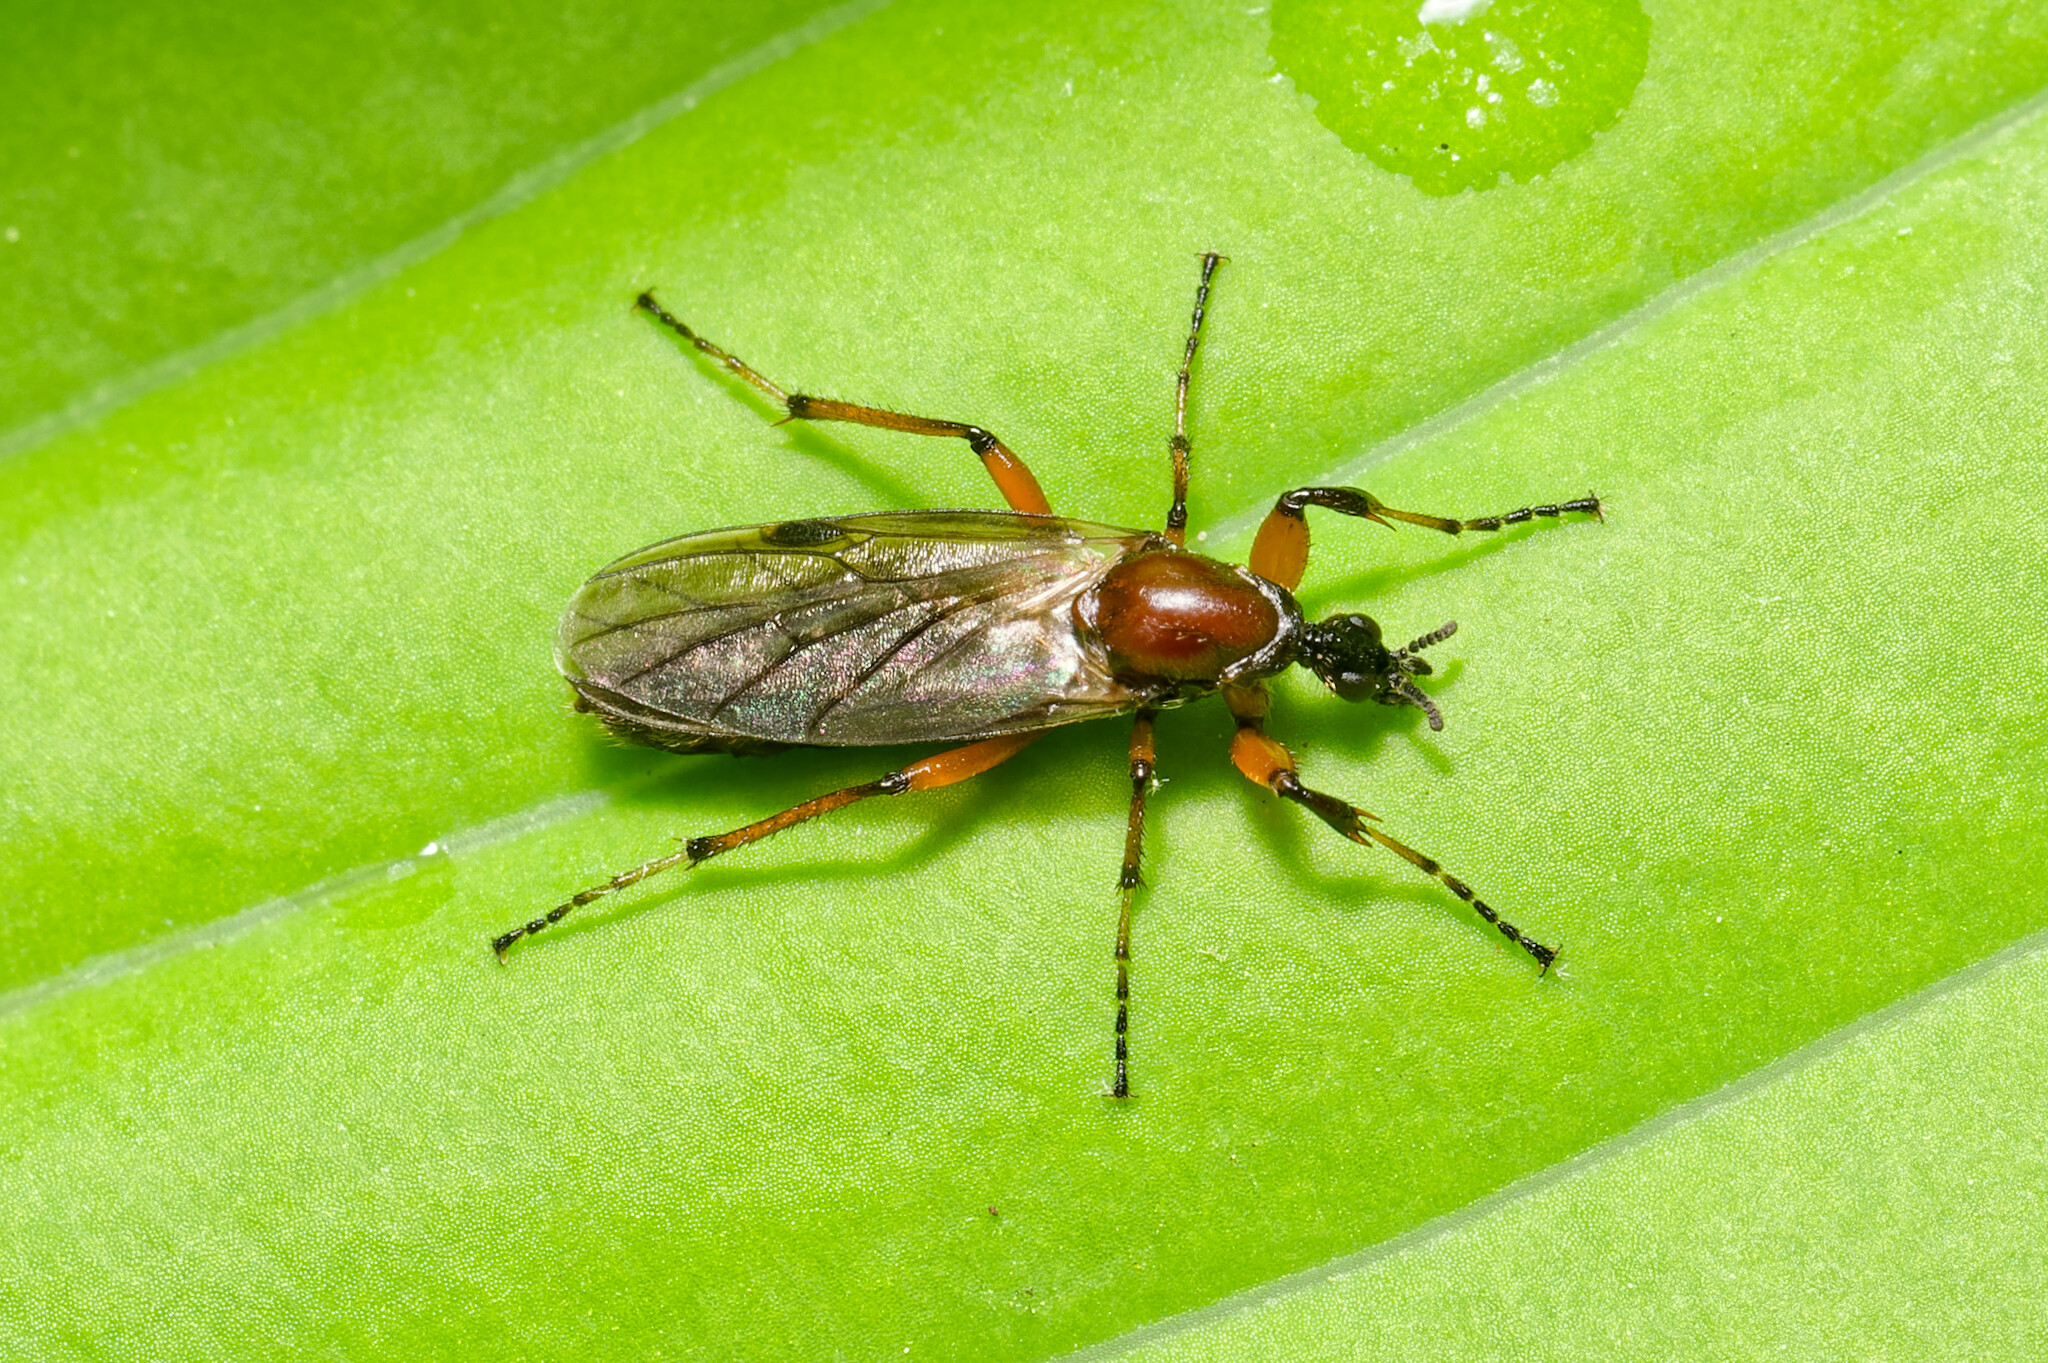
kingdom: Animalia
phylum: Arthropoda
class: Insecta
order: Diptera
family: Bibionidae
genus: Bibio
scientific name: Bibio articulatus
